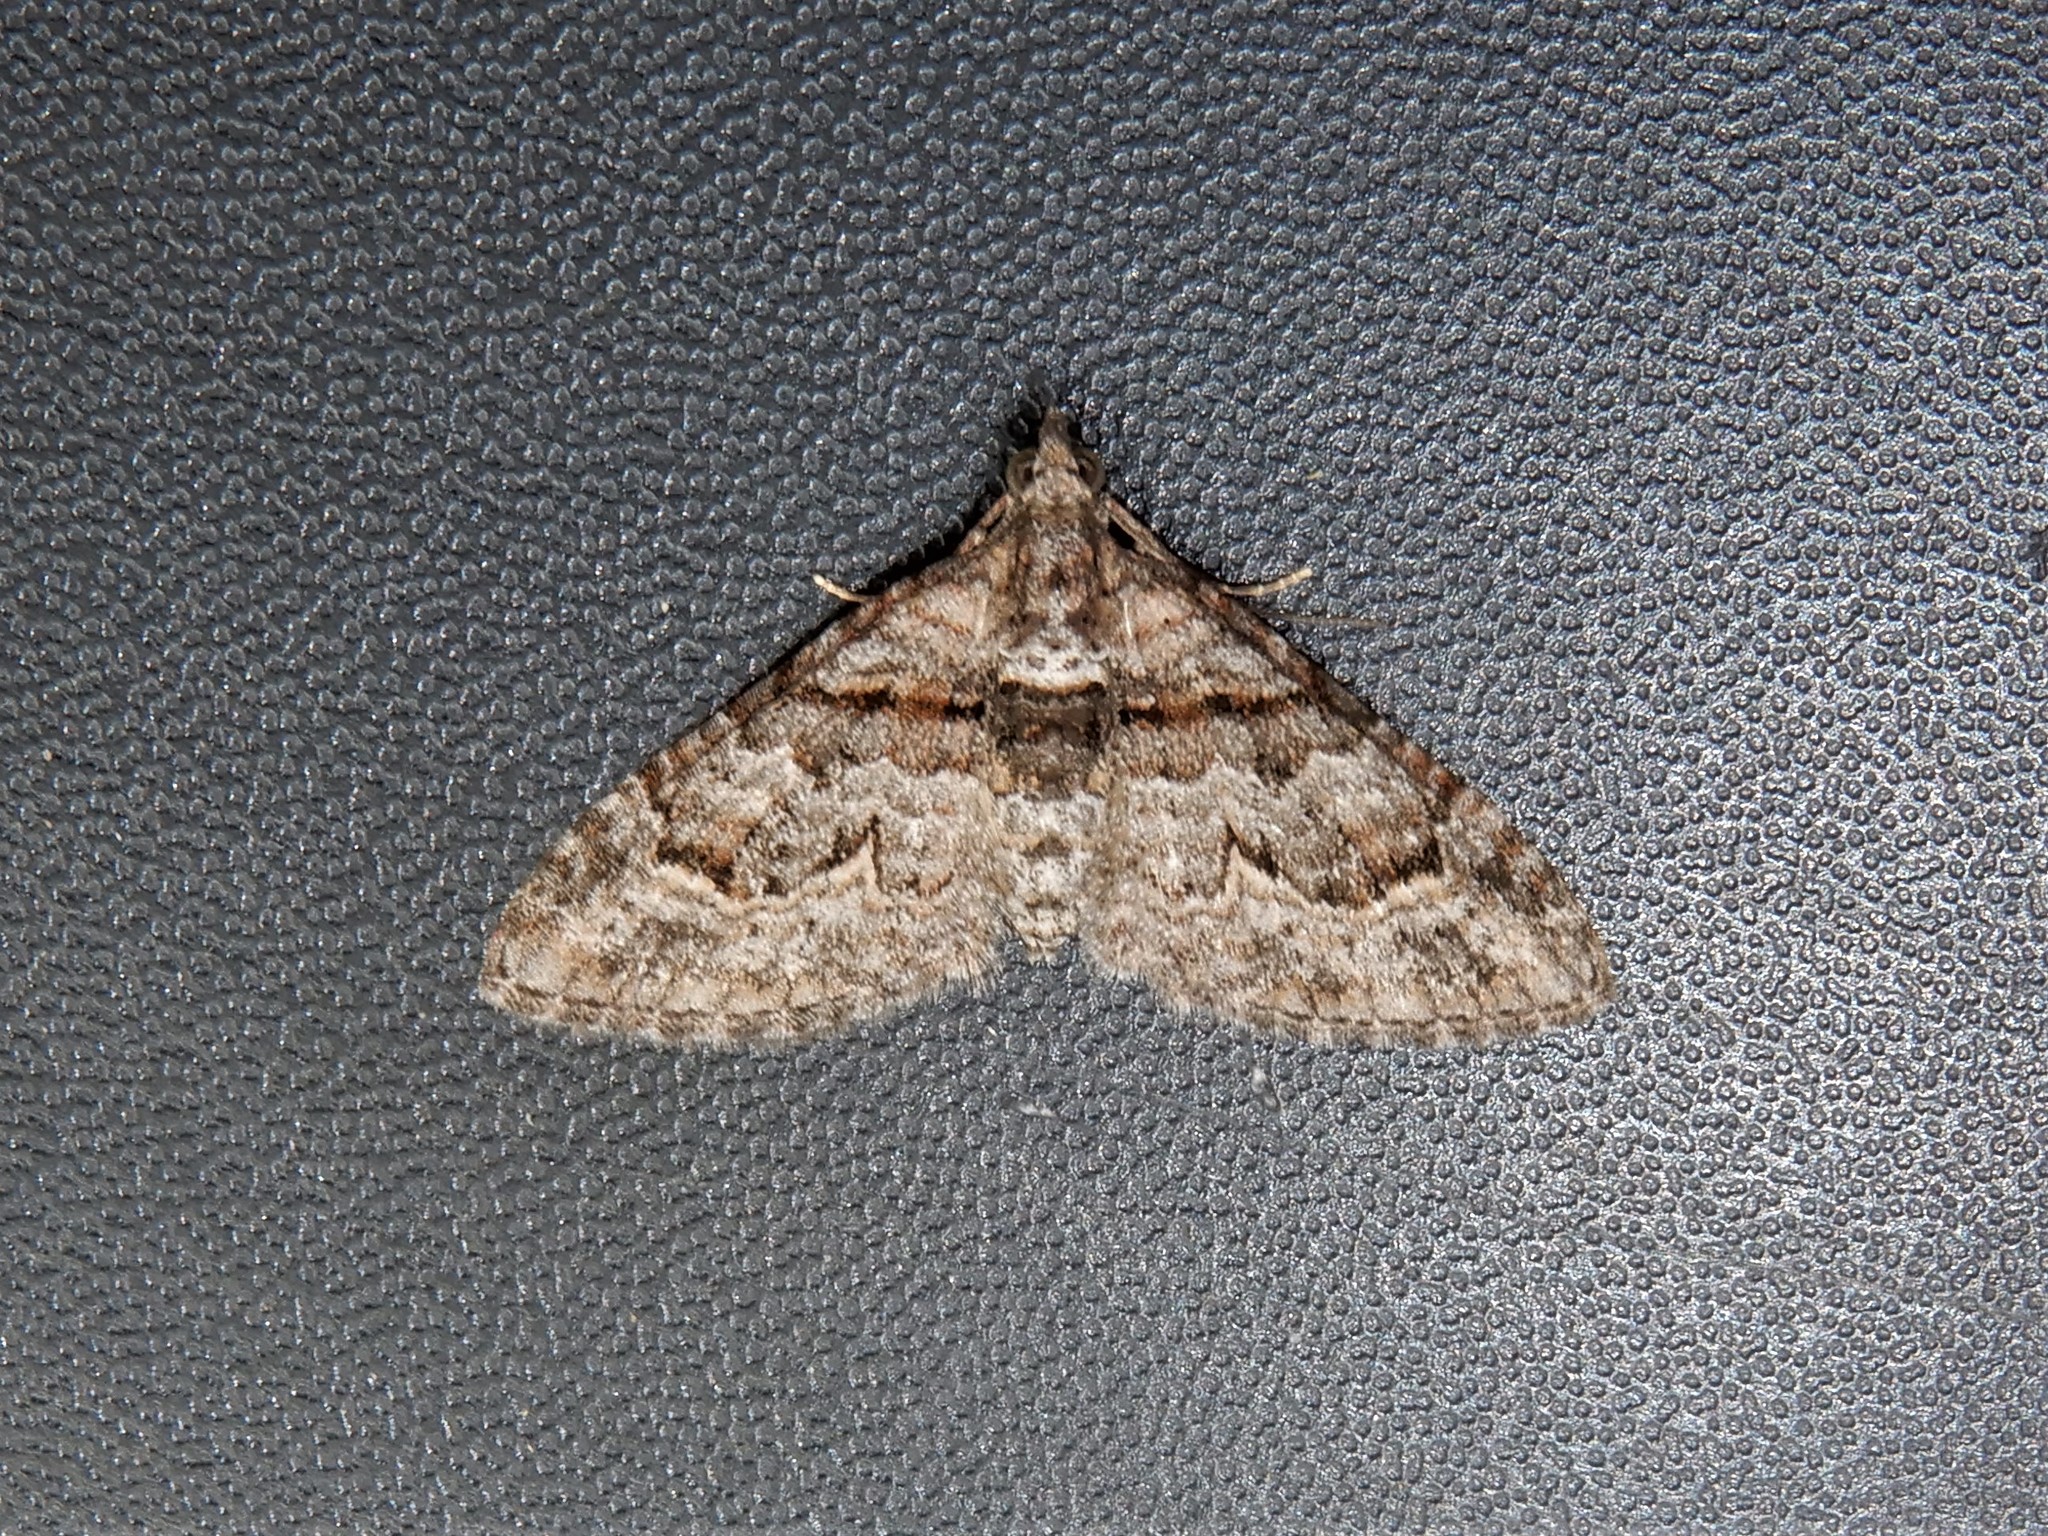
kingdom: Animalia
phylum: Arthropoda
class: Insecta
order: Lepidoptera
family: Geometridae
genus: Phrissogonus
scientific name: Phrissogonus laticostata
